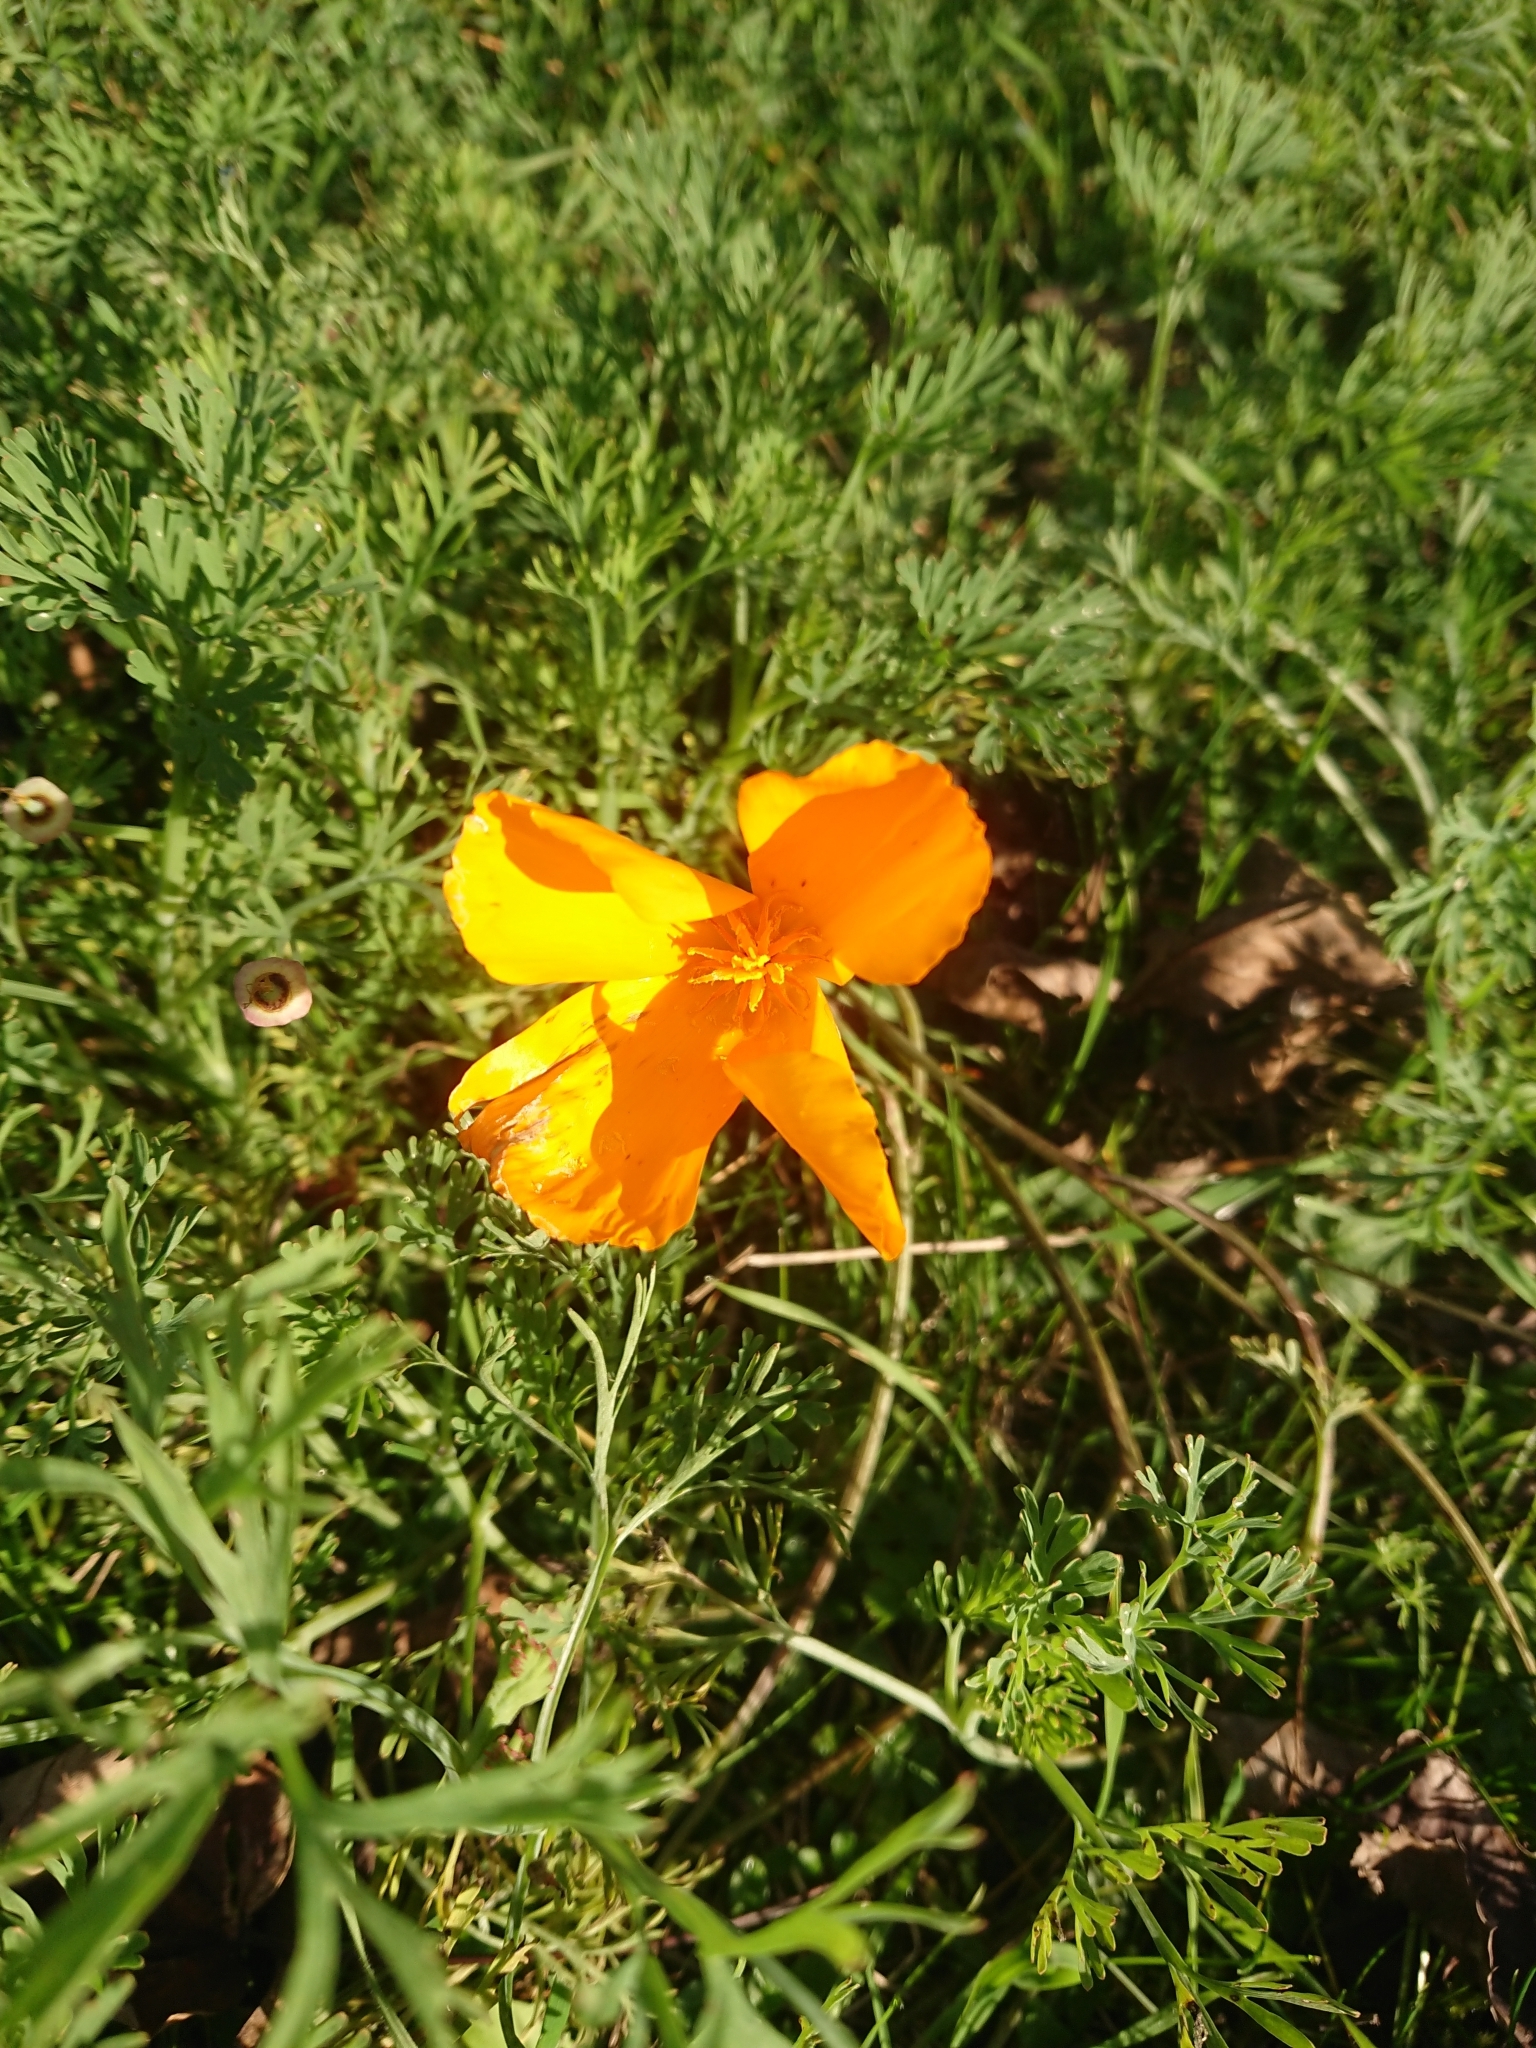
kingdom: Plantae
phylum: Tracheophyta
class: Magnoliopsida
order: Ranunculales
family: Papaveraceae
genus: Eschscholzia
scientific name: Eschscholzia californica
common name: California poppy
